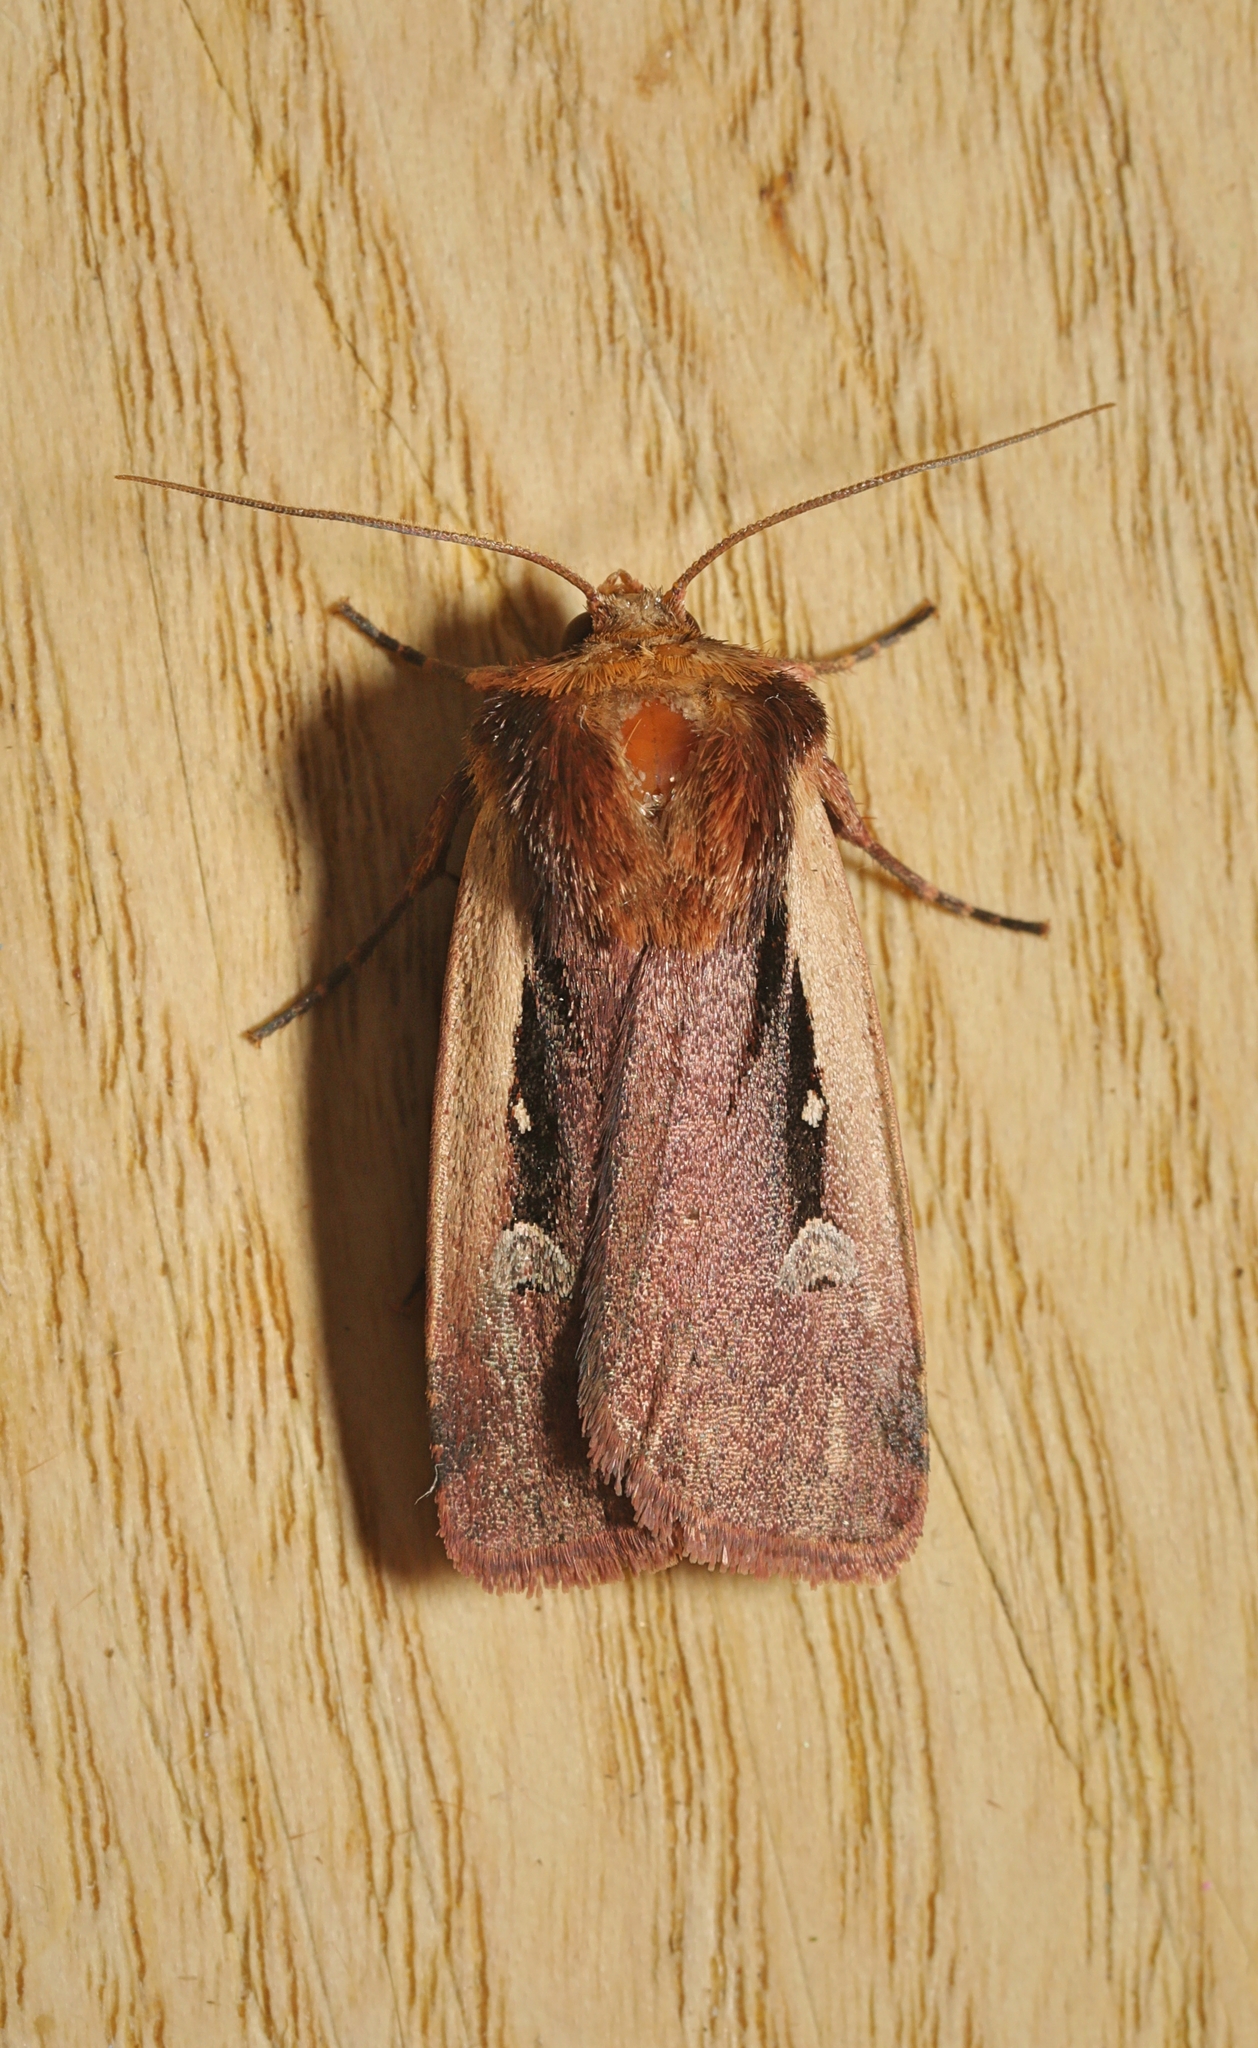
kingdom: Animalia
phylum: Arthropoda
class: Insecta
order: Lepidoptera
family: Noctuidae
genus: Ochropleura
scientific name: Ochropleura plecta
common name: Flame shoulder
